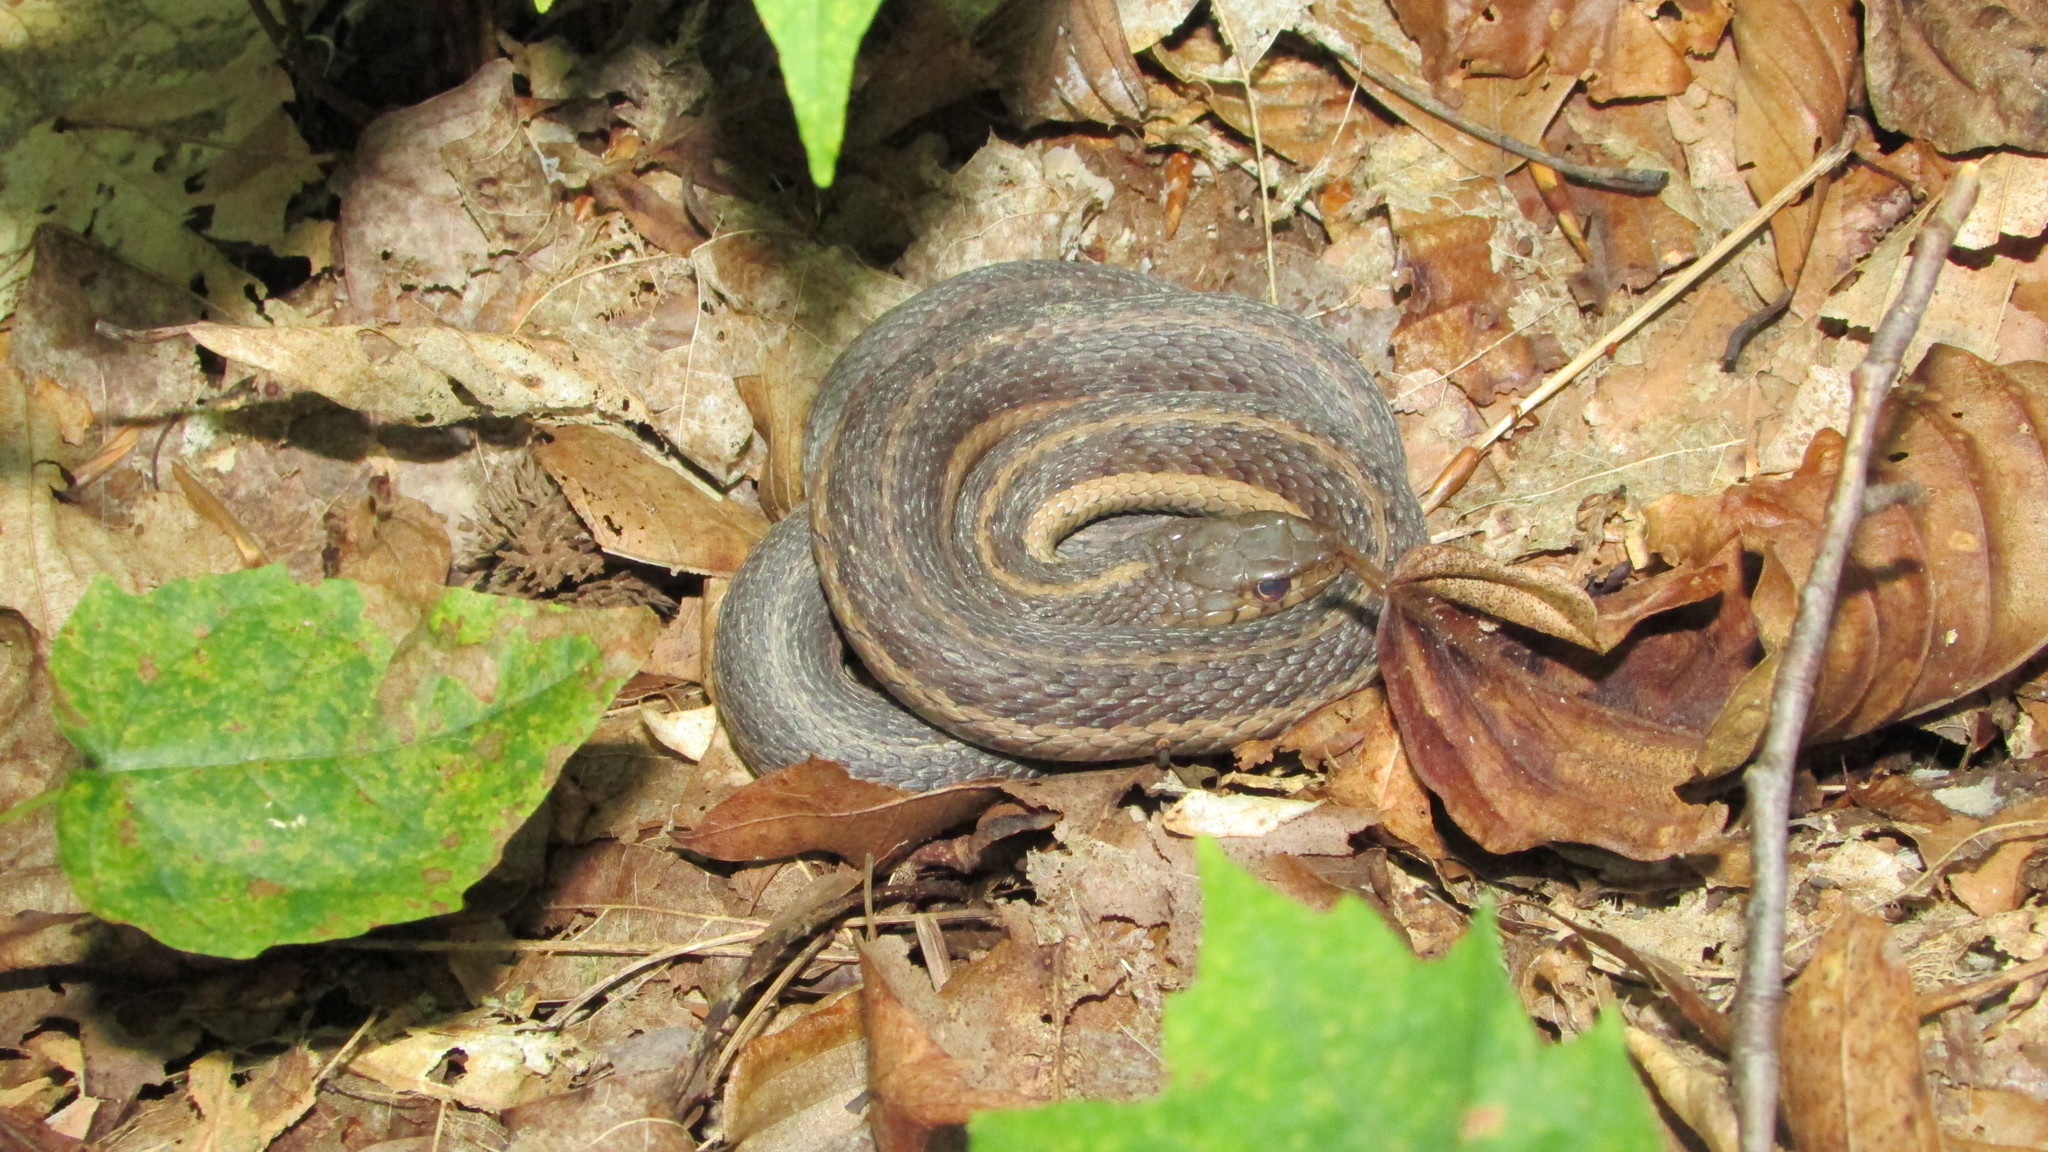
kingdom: Animalia
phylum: Chordata
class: Squamata
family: Colubridae
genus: Thamnophis
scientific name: Thamnophis sirtalis
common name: Common garter snake
